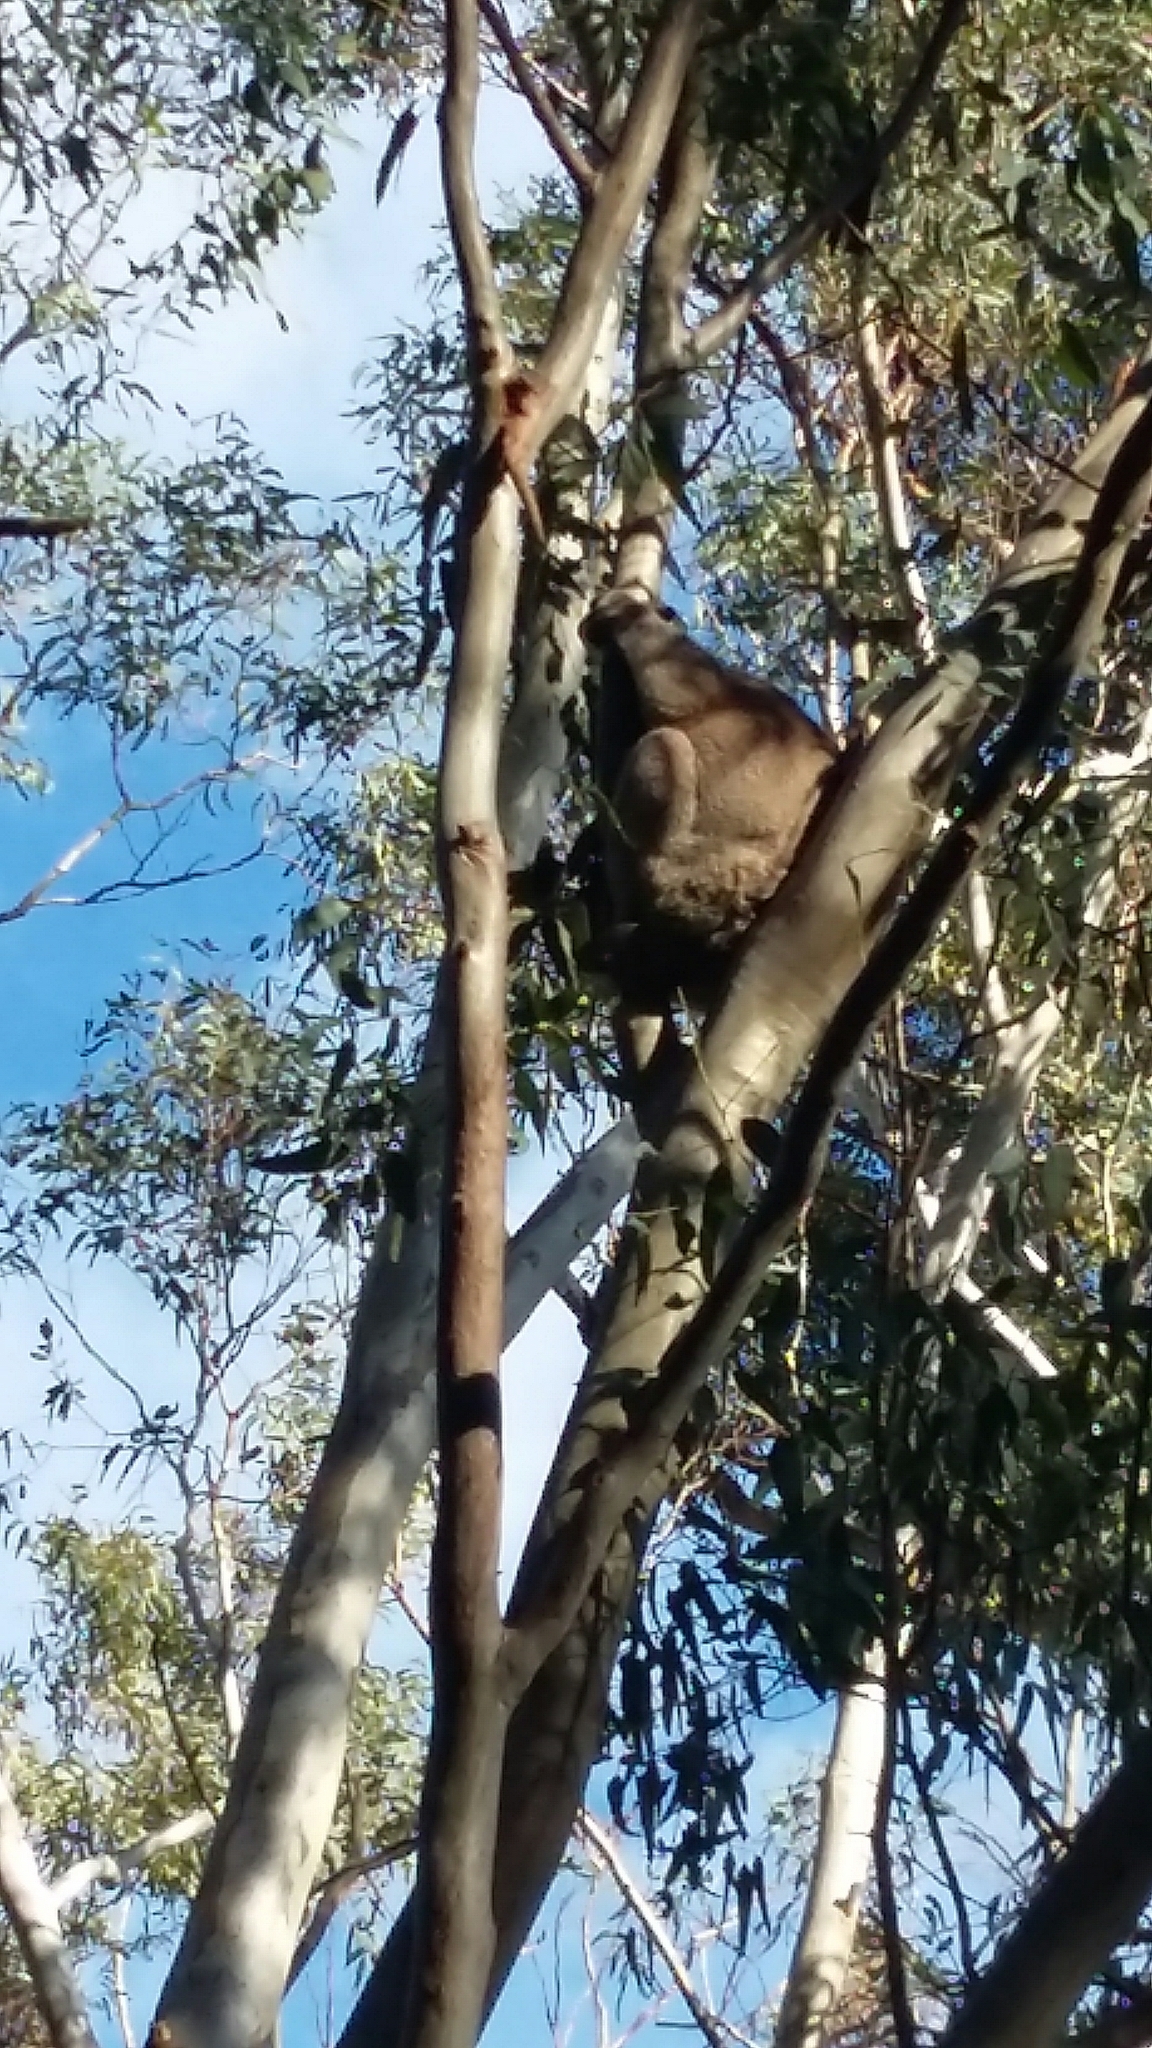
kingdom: Animalia
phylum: Chordata
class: Mammalia
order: Diprotodontia
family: Phascolarctidae
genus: Phascolarctos
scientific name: Phascolarctos cinereus
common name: Koala
